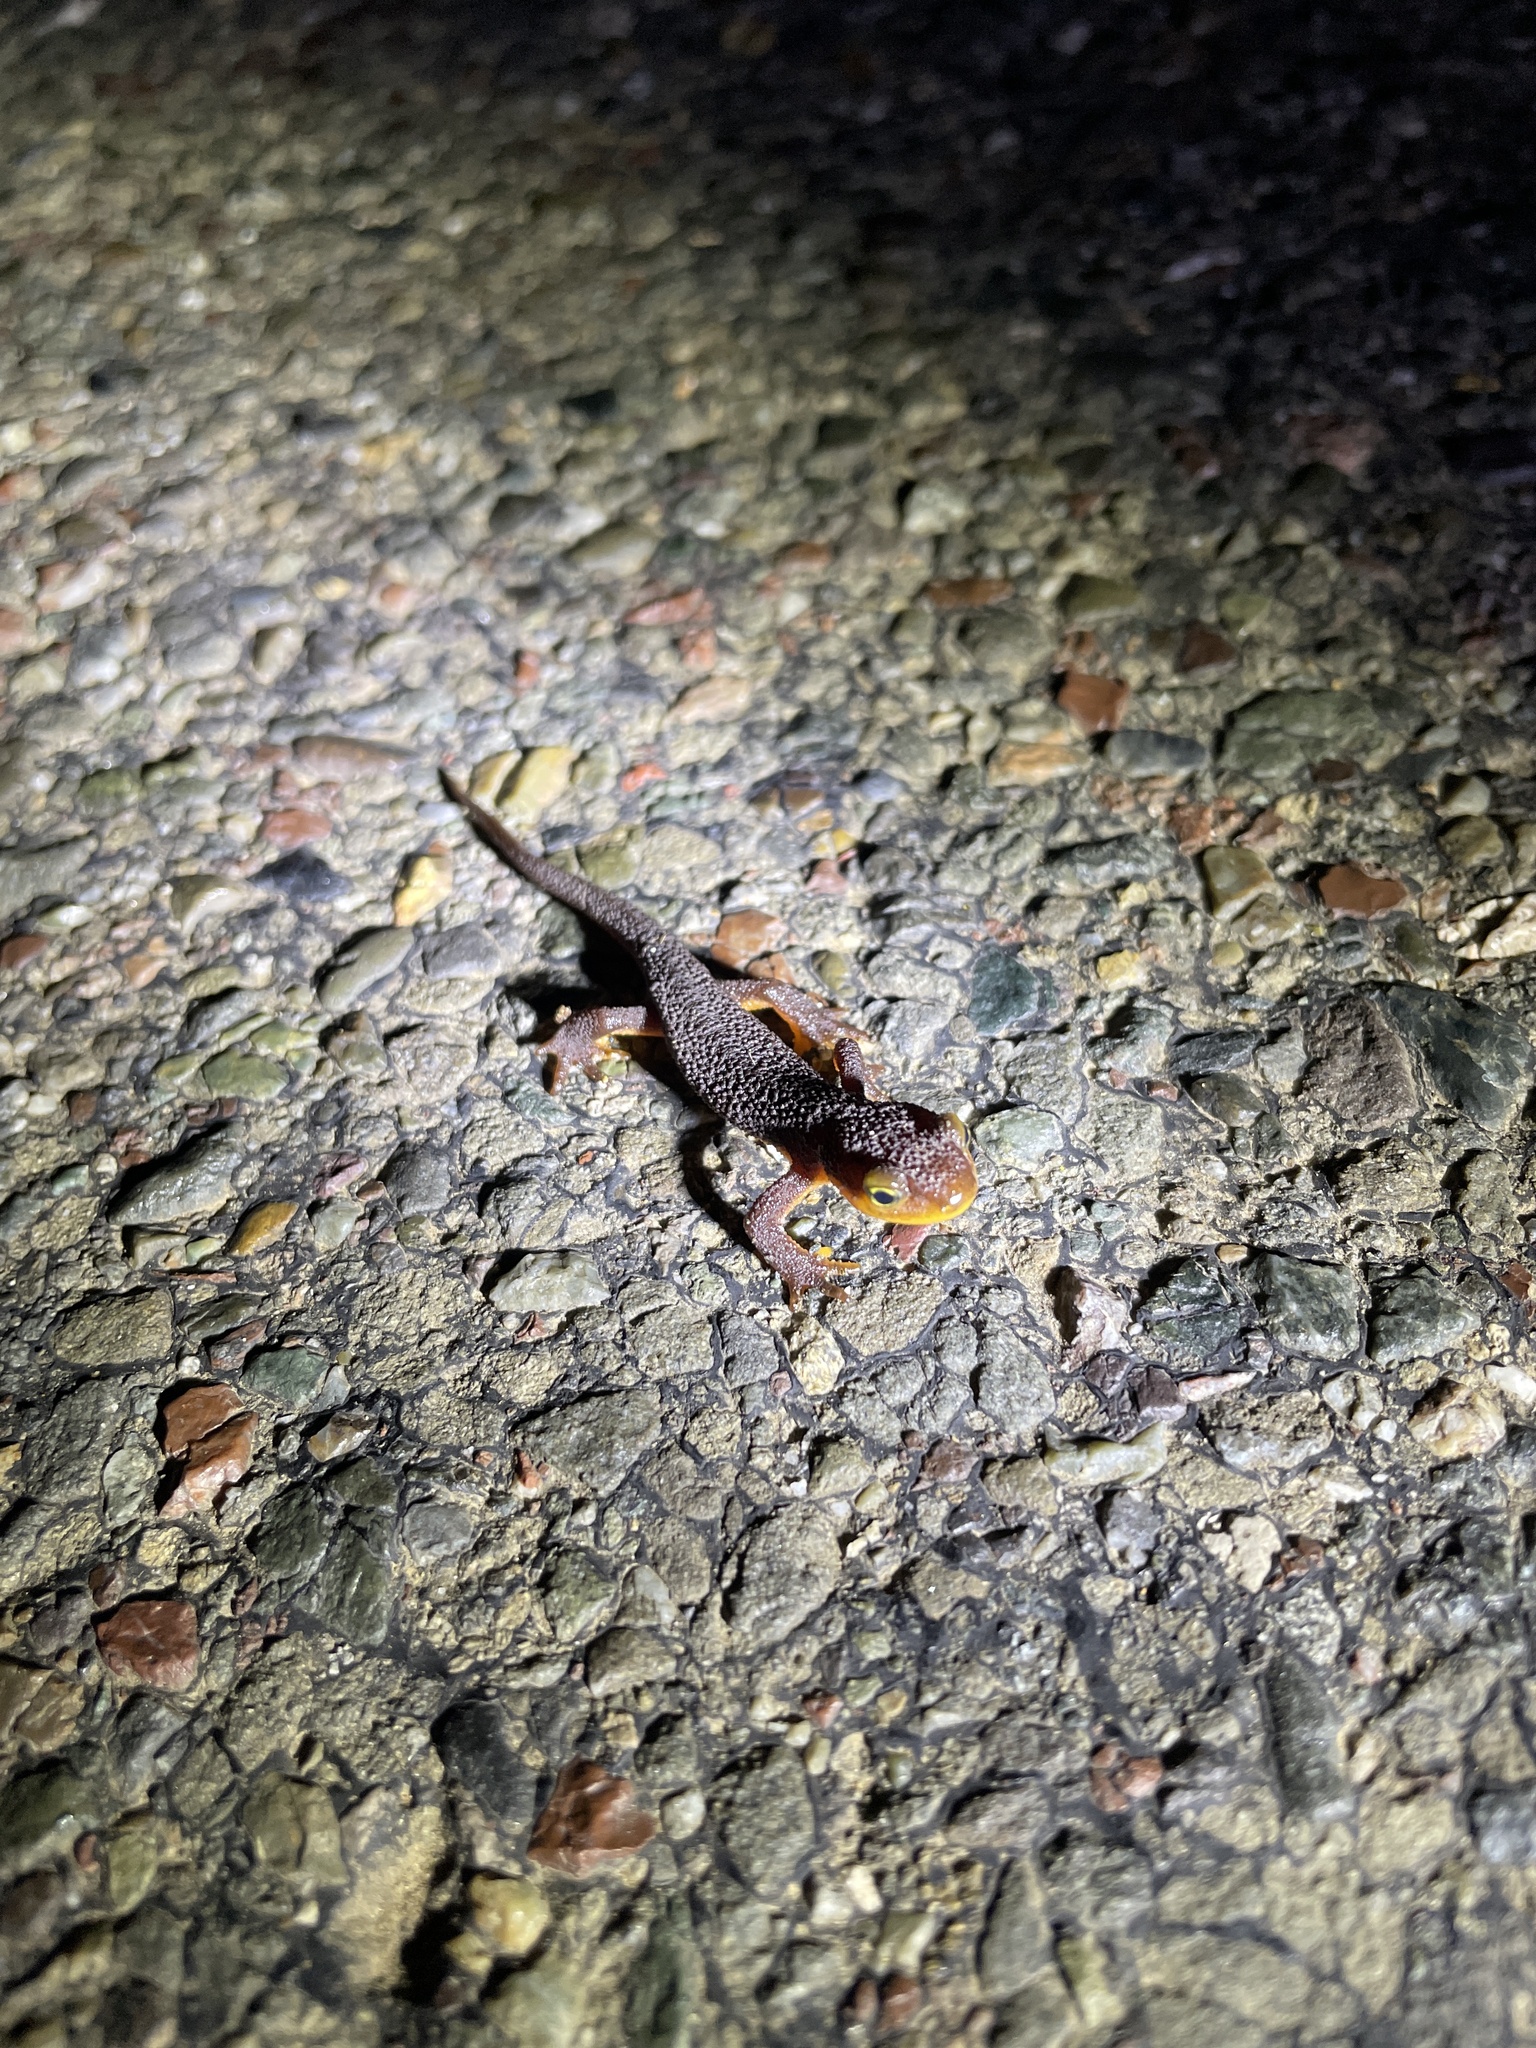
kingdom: Animalia
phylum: Chordata
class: Amphibia
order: Caudata
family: Salamandridae
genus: Taricha
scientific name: Taricha torosa
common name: California newt
